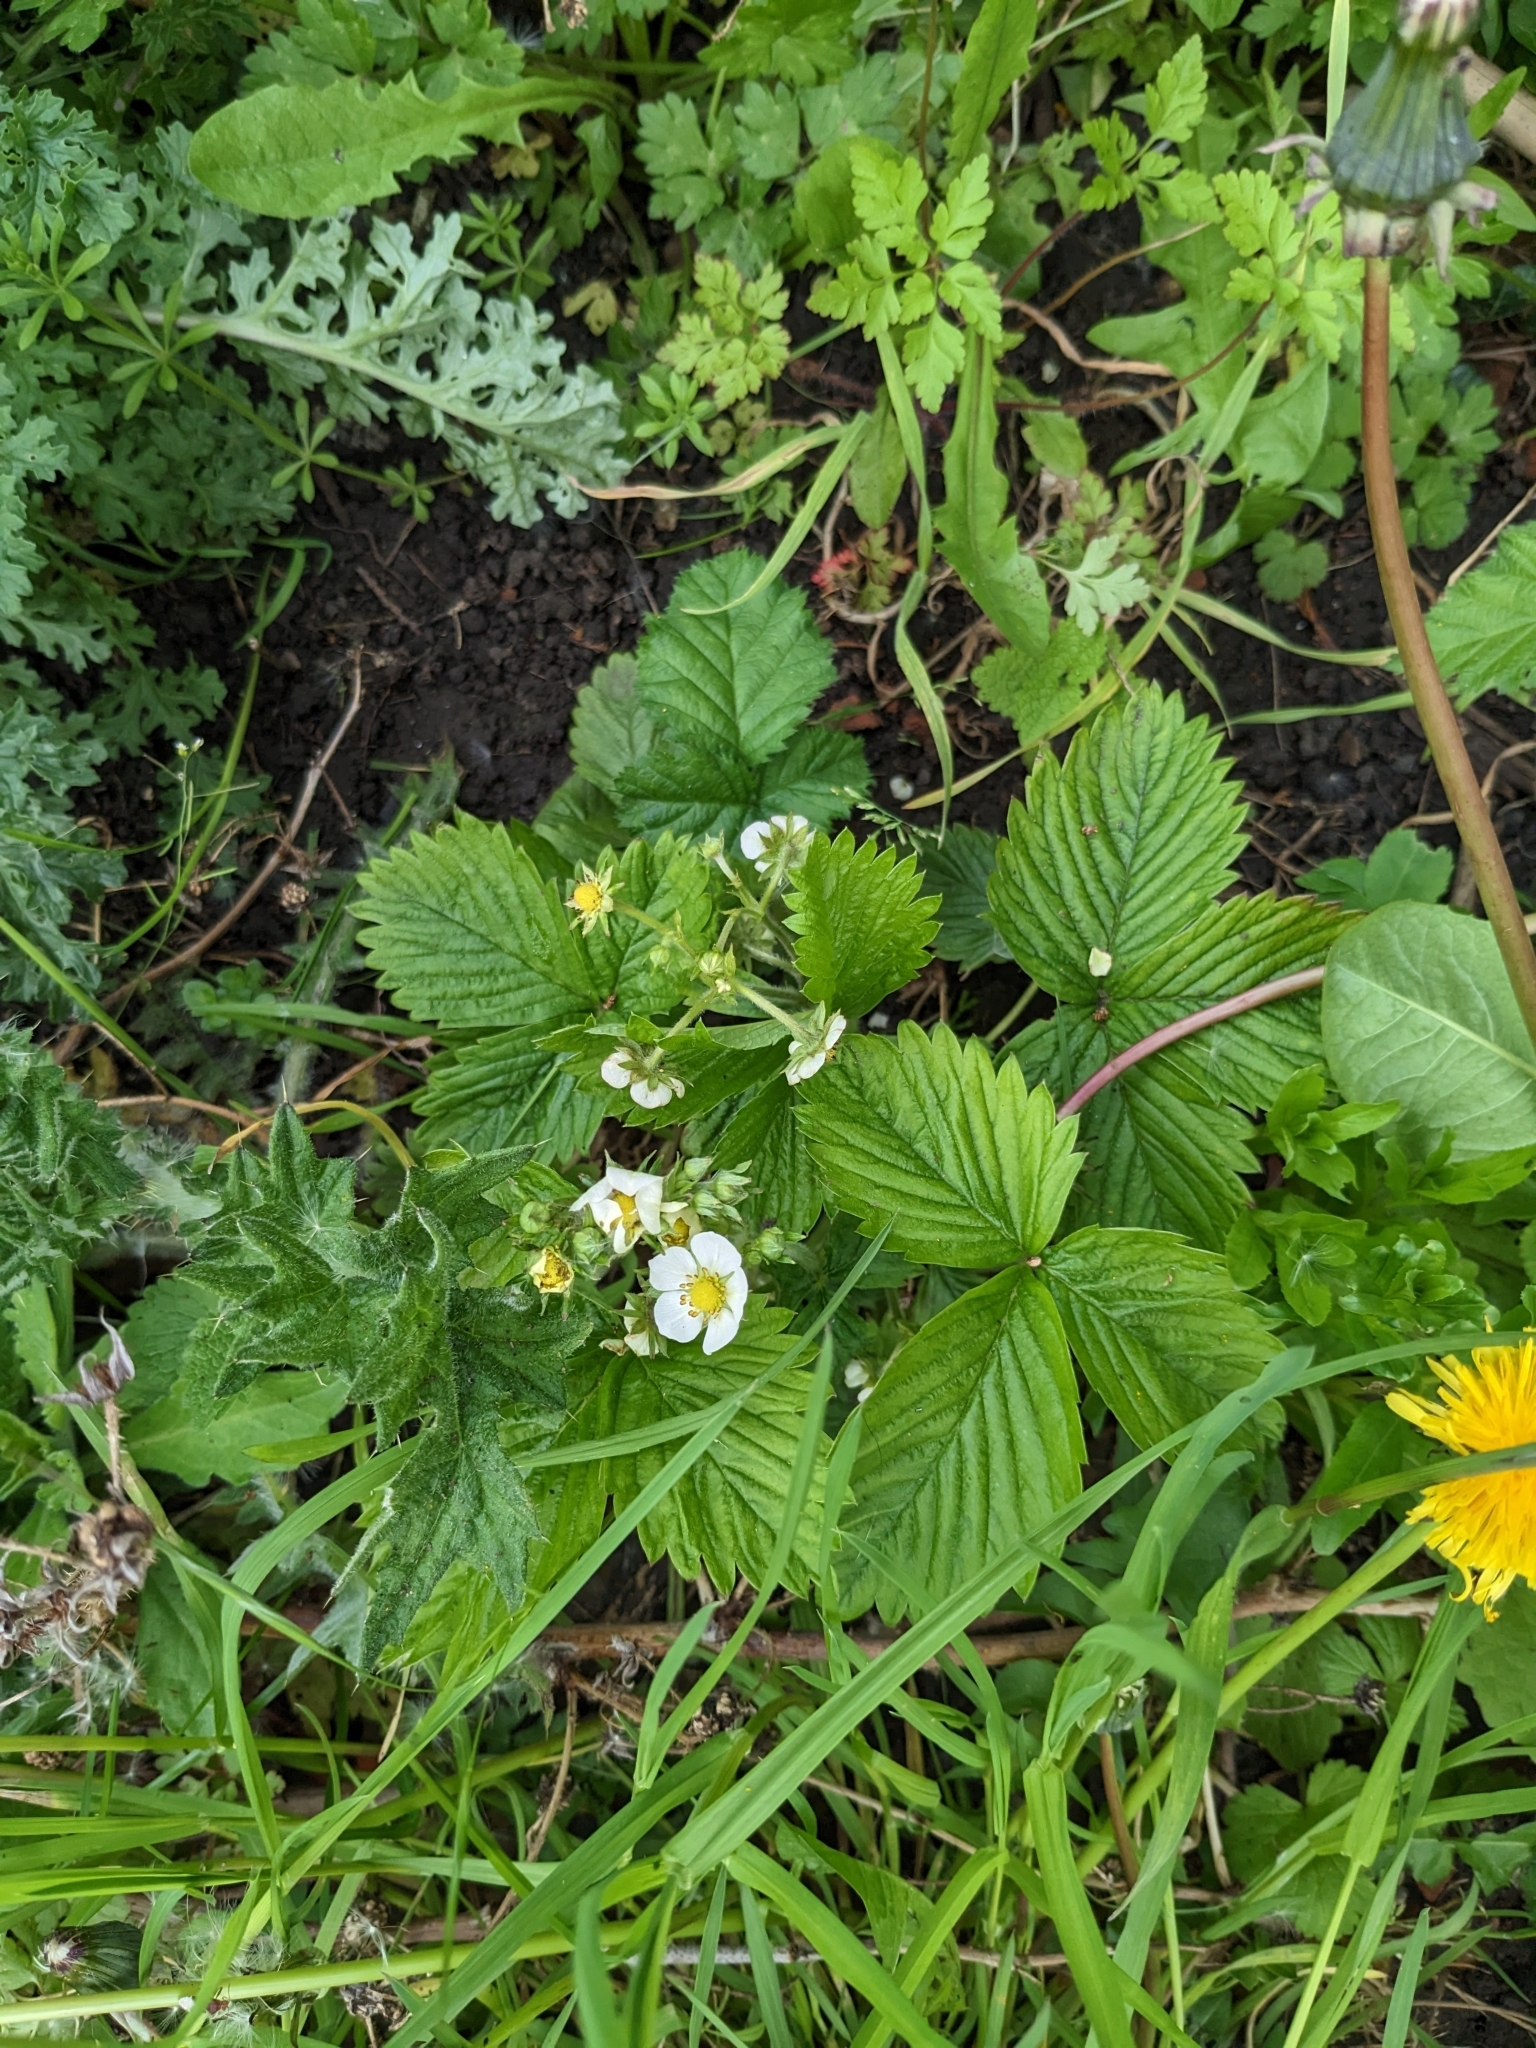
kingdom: Plantae
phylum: Tracheophyta
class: Magnoliopsida
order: Rosales
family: Rosaceae
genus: Fragaria
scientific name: Fragaria vesca
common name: Wild strawberry
